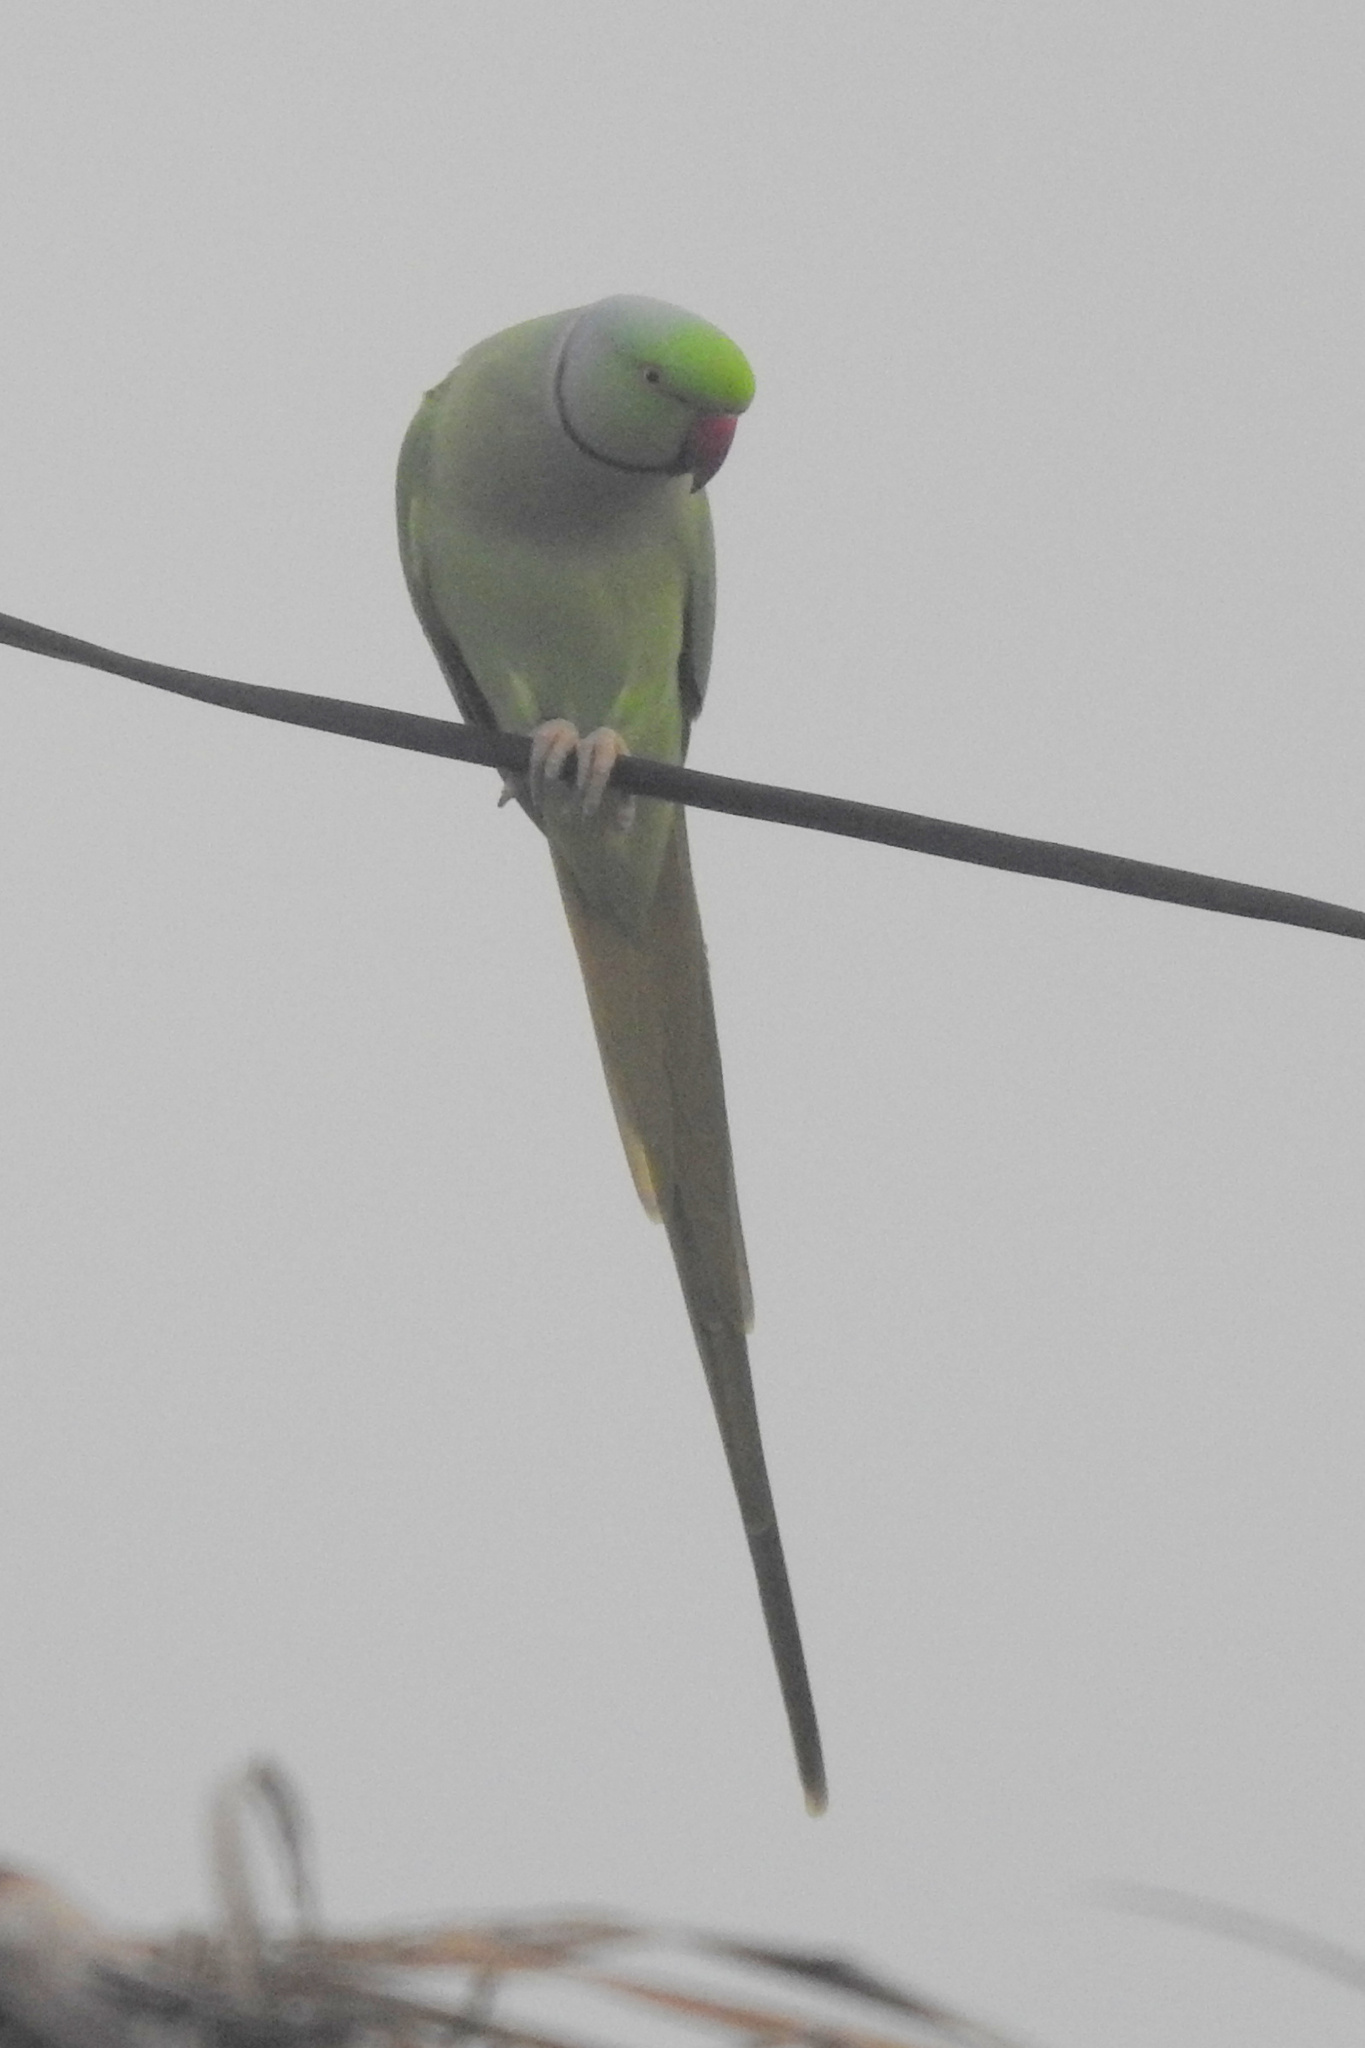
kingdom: Animalia
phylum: Chordata
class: Aves
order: Psittaciformes
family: Psittacidae
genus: Psittacula
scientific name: Psittacula krameri
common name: Rose-ringed parakeet
